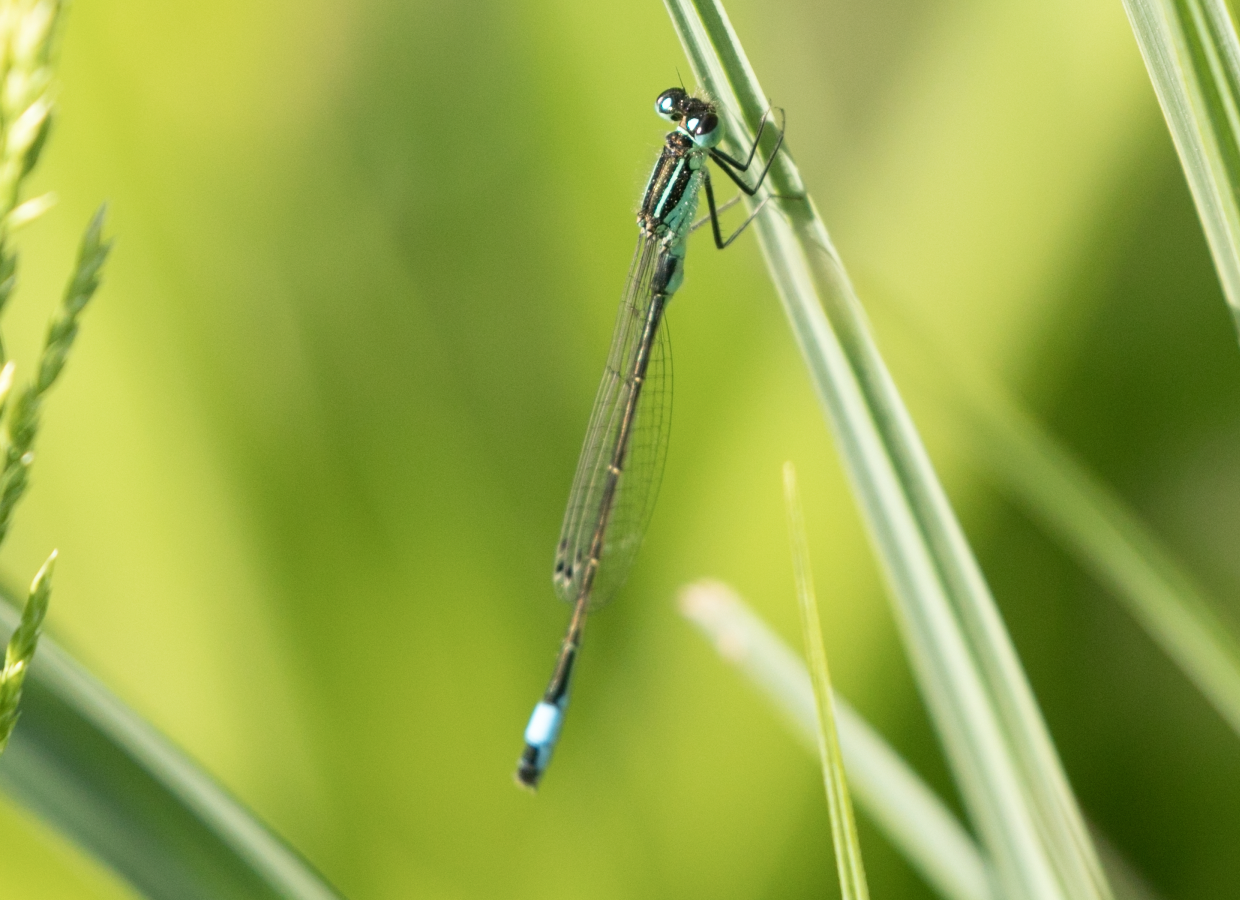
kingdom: Animalia
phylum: Arthropoda
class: Insecta
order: Odonata
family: Coenagrionidae
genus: Ischnura
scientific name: Ischnura elegans
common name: Blue-tailed damselfly
